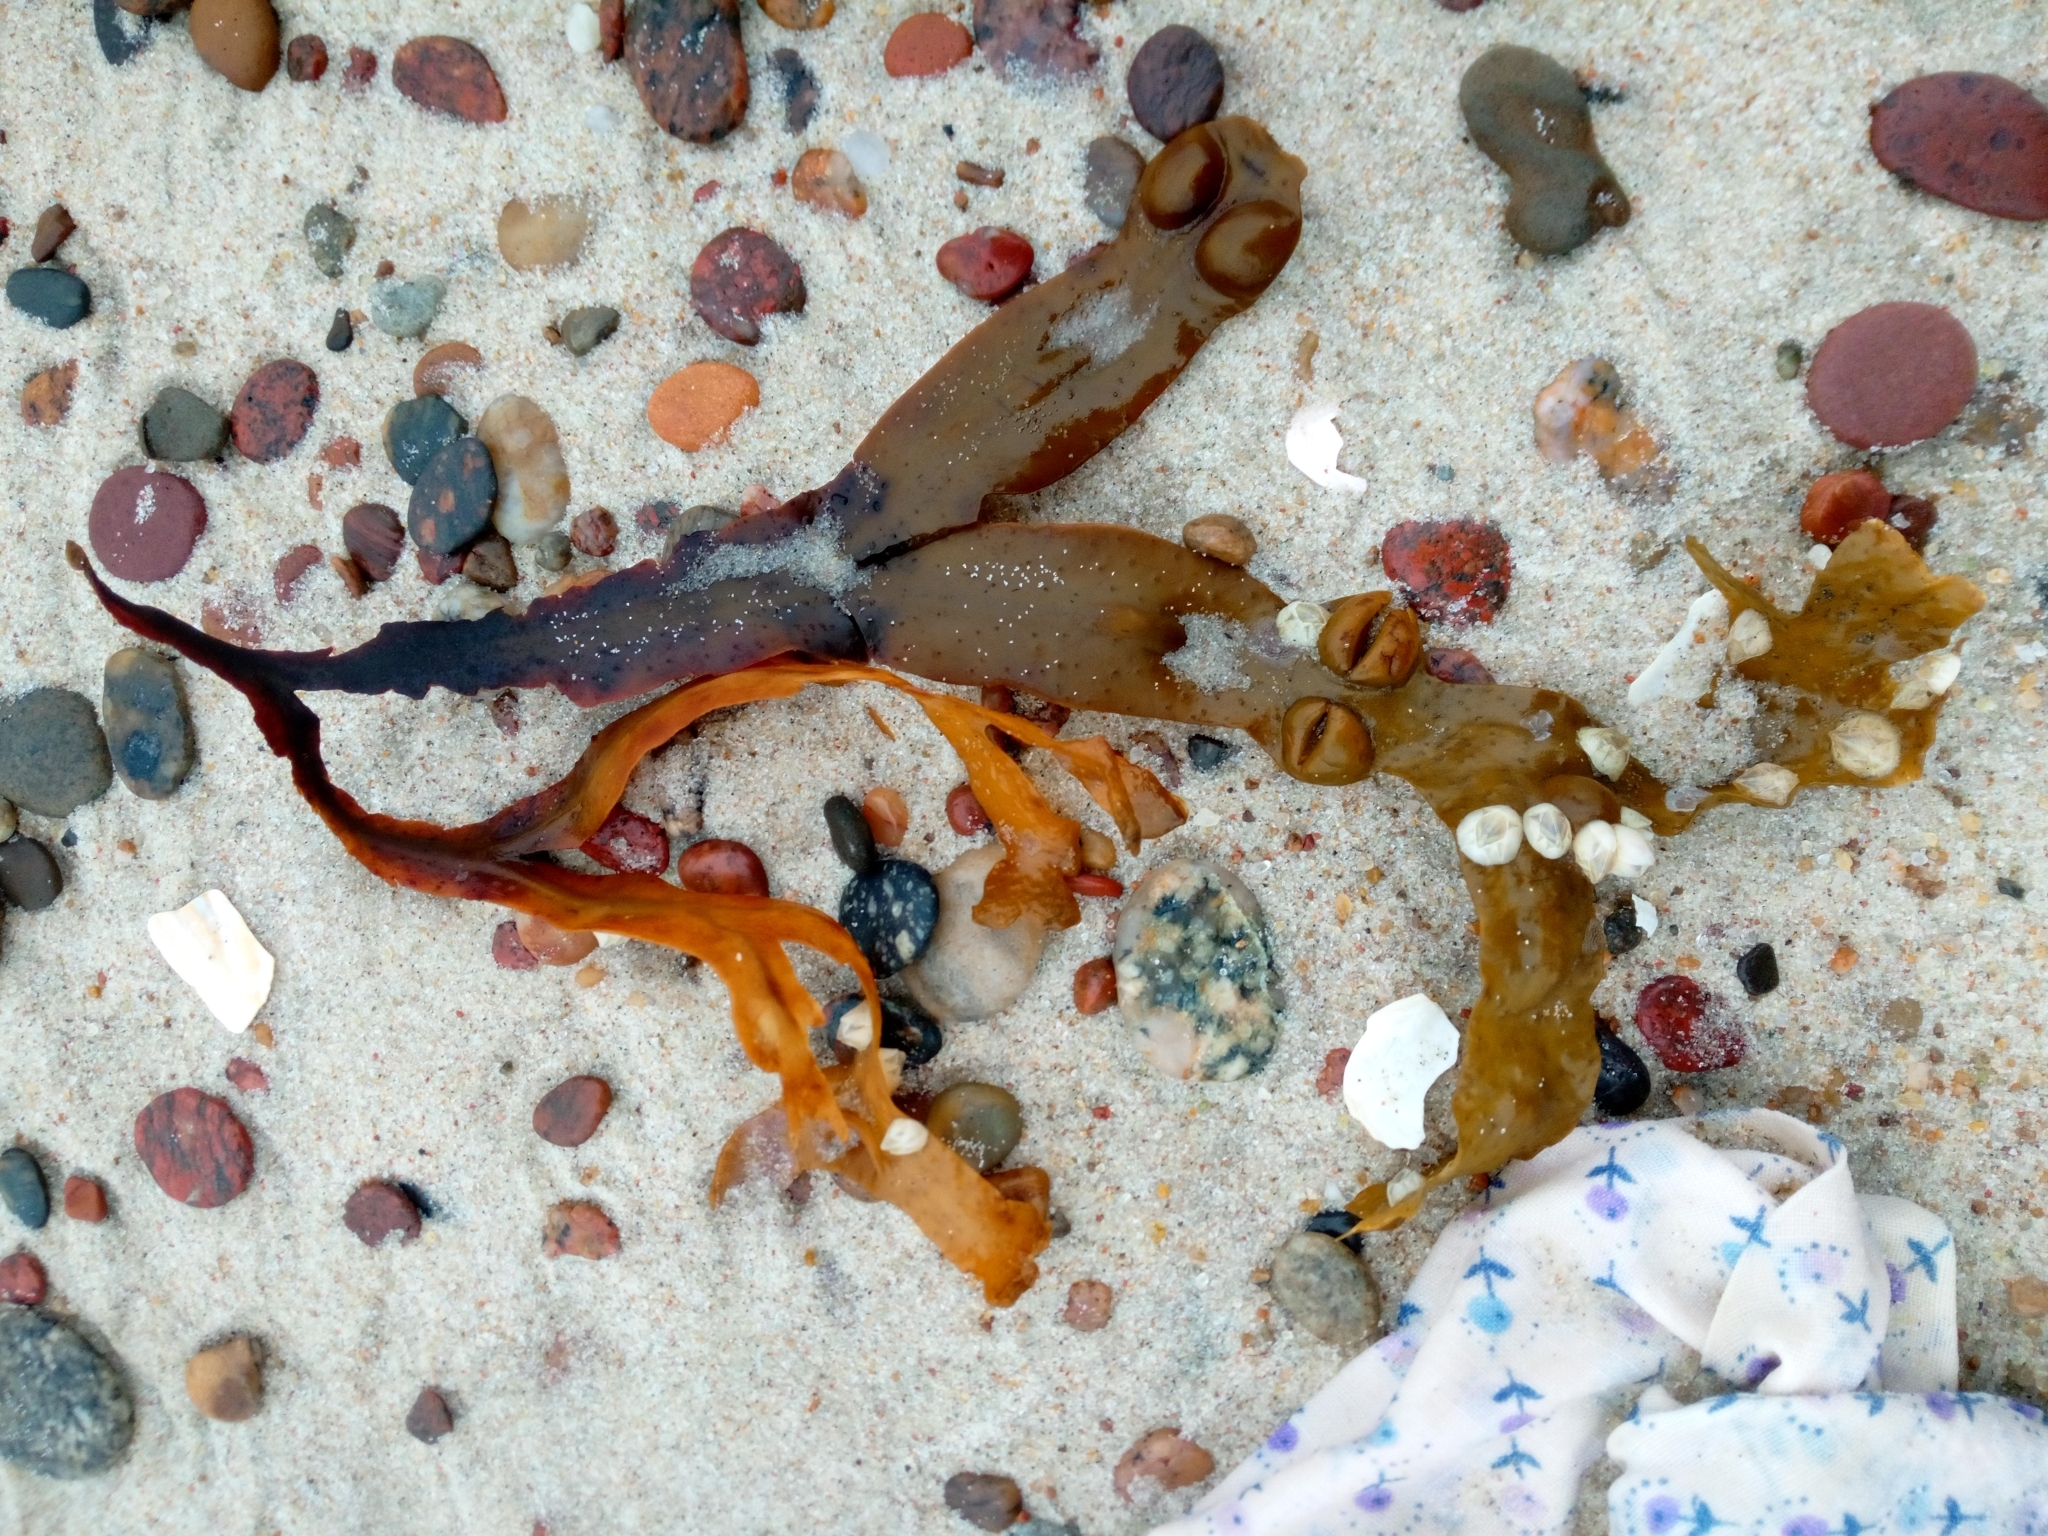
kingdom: Chromista
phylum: Ochrophyta
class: Phaeophyceae
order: Fucales
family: Fucaceae
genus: Fucus
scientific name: Fucus vesiculosus
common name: Bladder wrack
